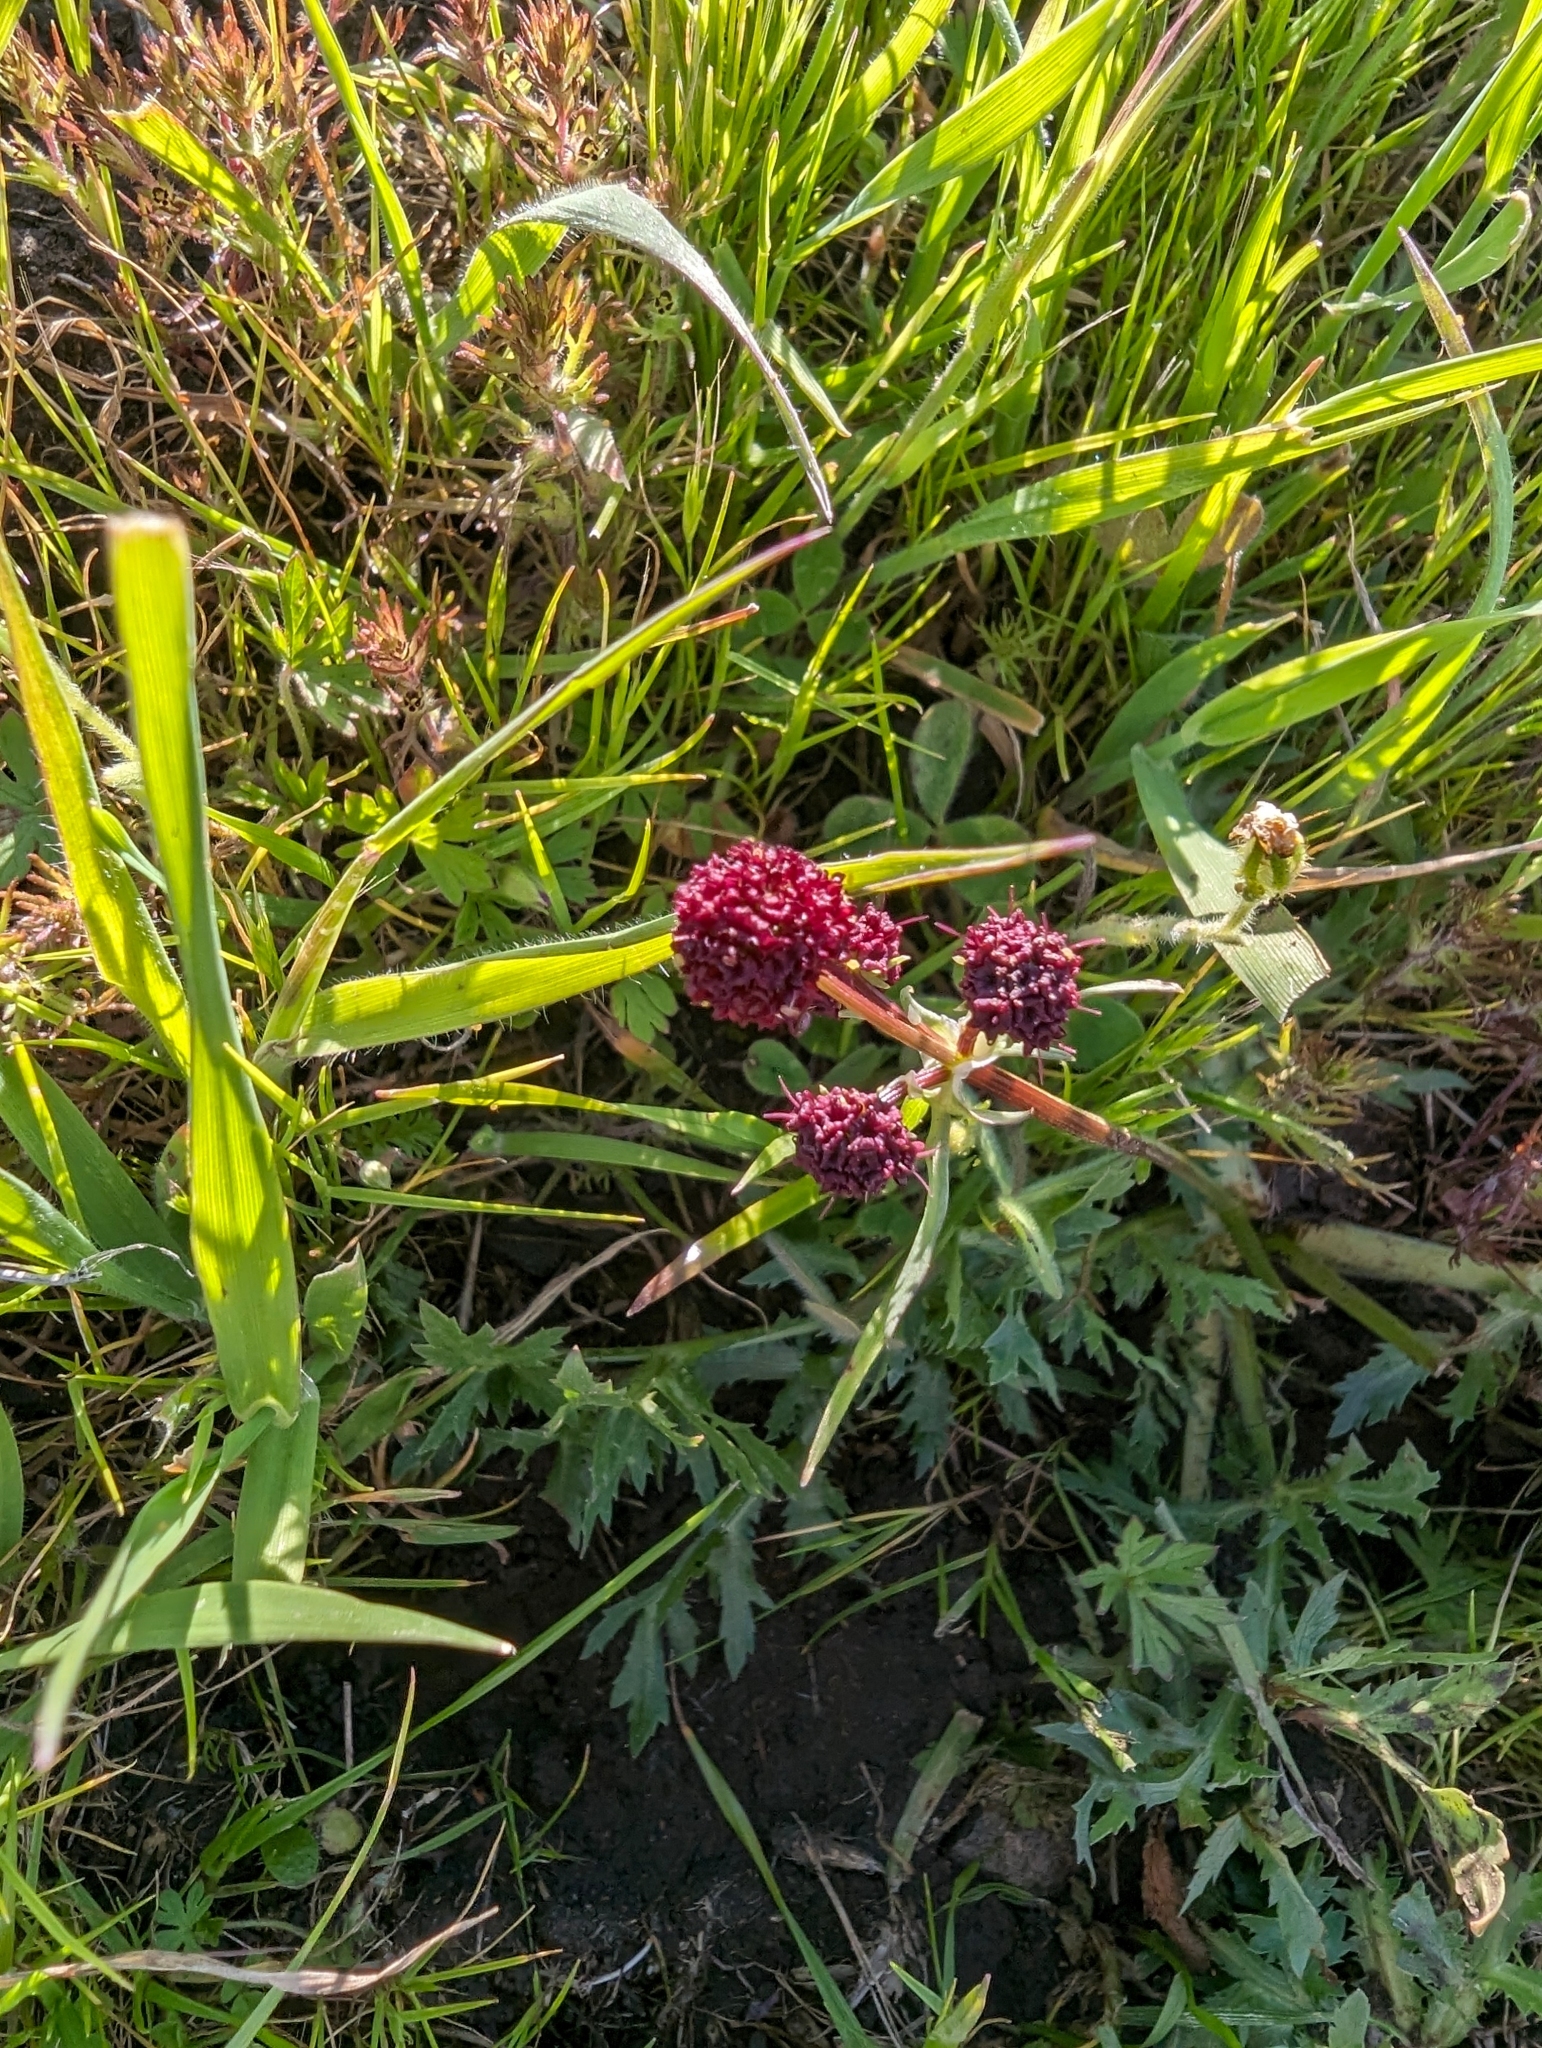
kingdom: Plantae
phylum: Tracheophyta
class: Magnoliopsida
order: Apiales
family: Apiaceae
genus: Sanicula
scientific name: Sanicula bipinnatifida
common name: Shoe-buttons
